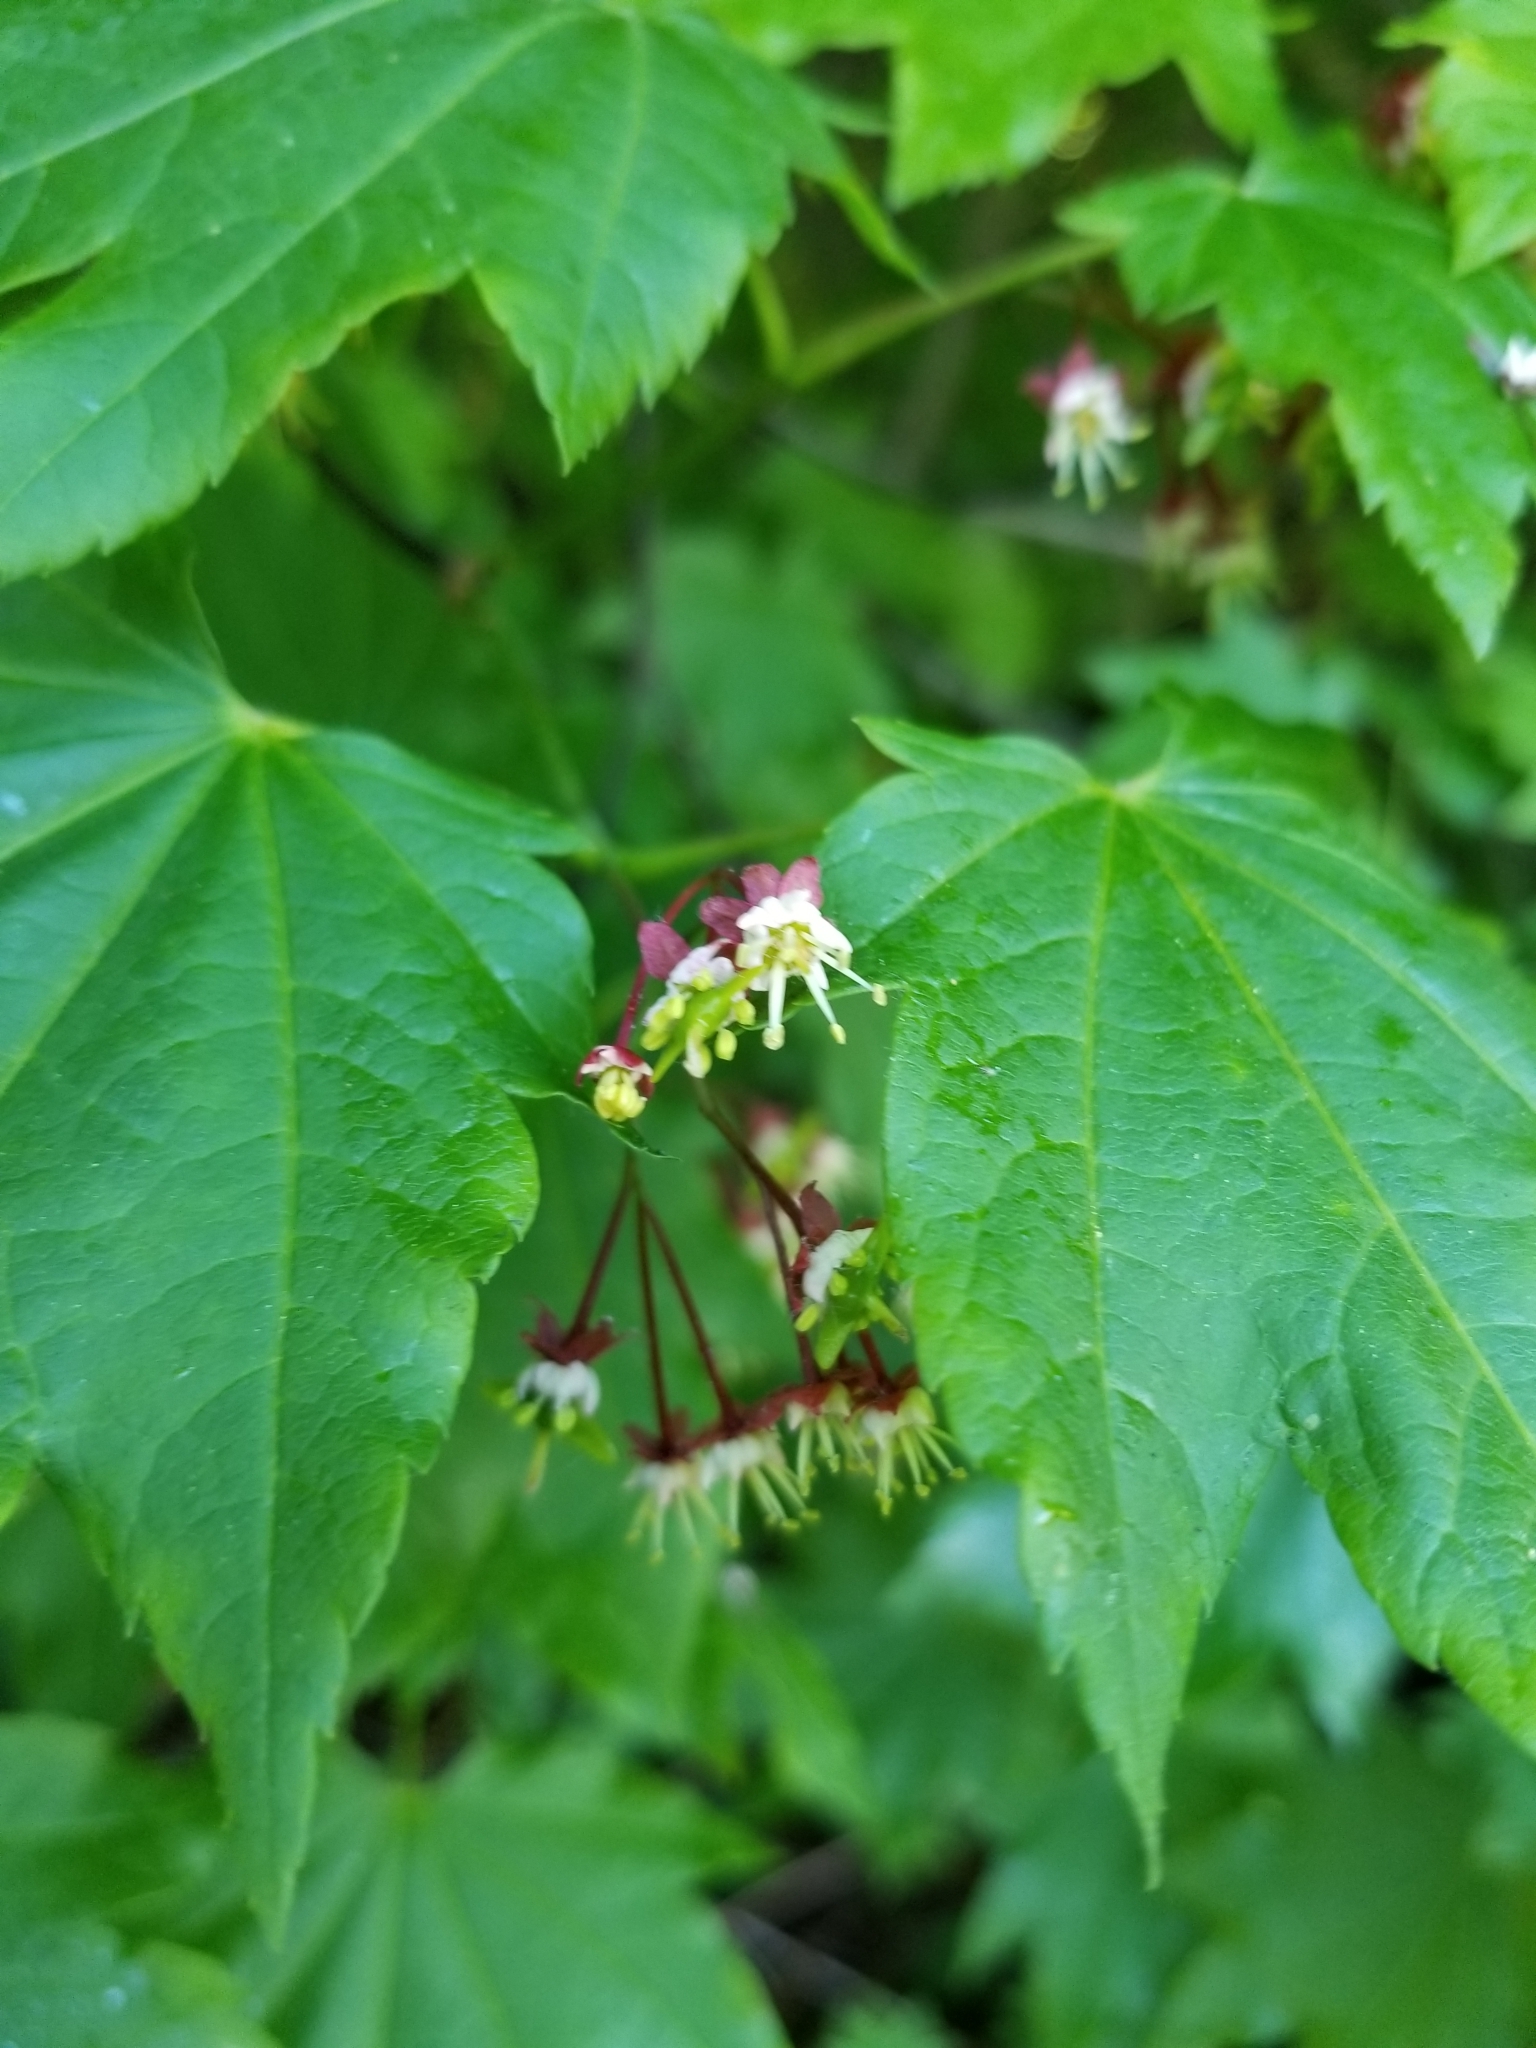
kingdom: Plantae
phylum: Tracheophyta
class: Magnoliopsida
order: Sapindales
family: Sapindaceae
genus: Acer
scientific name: Acer circinatum
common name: Vine maple
